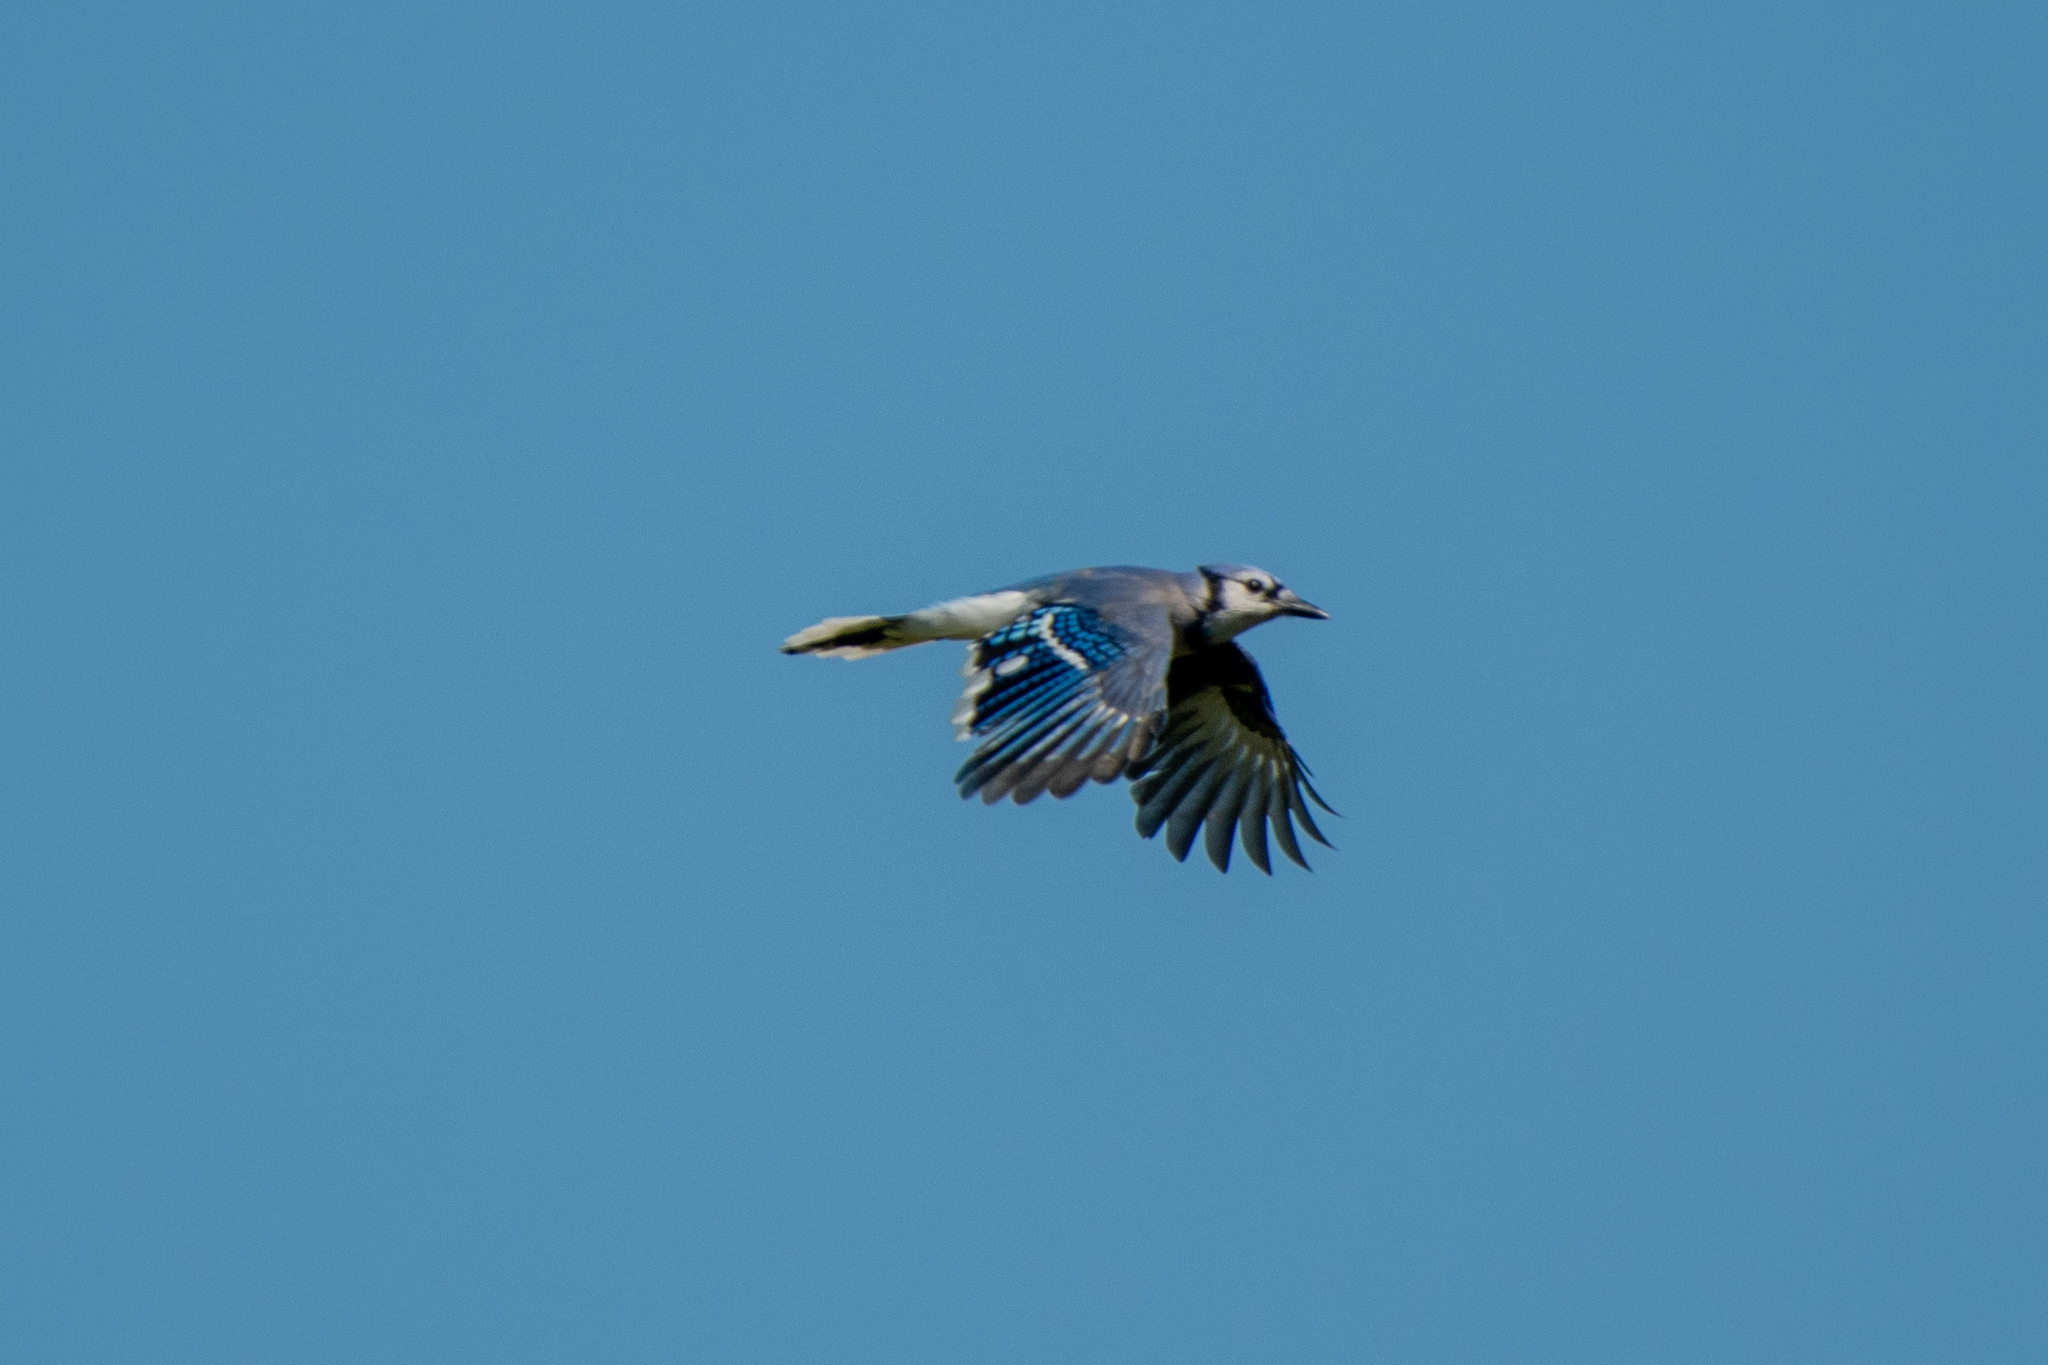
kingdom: Animalia
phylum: Chordata
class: Aves
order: Passeriformes
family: Corvidae
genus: Cyanocitta
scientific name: Cyanocitta cristata
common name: Blue jay
